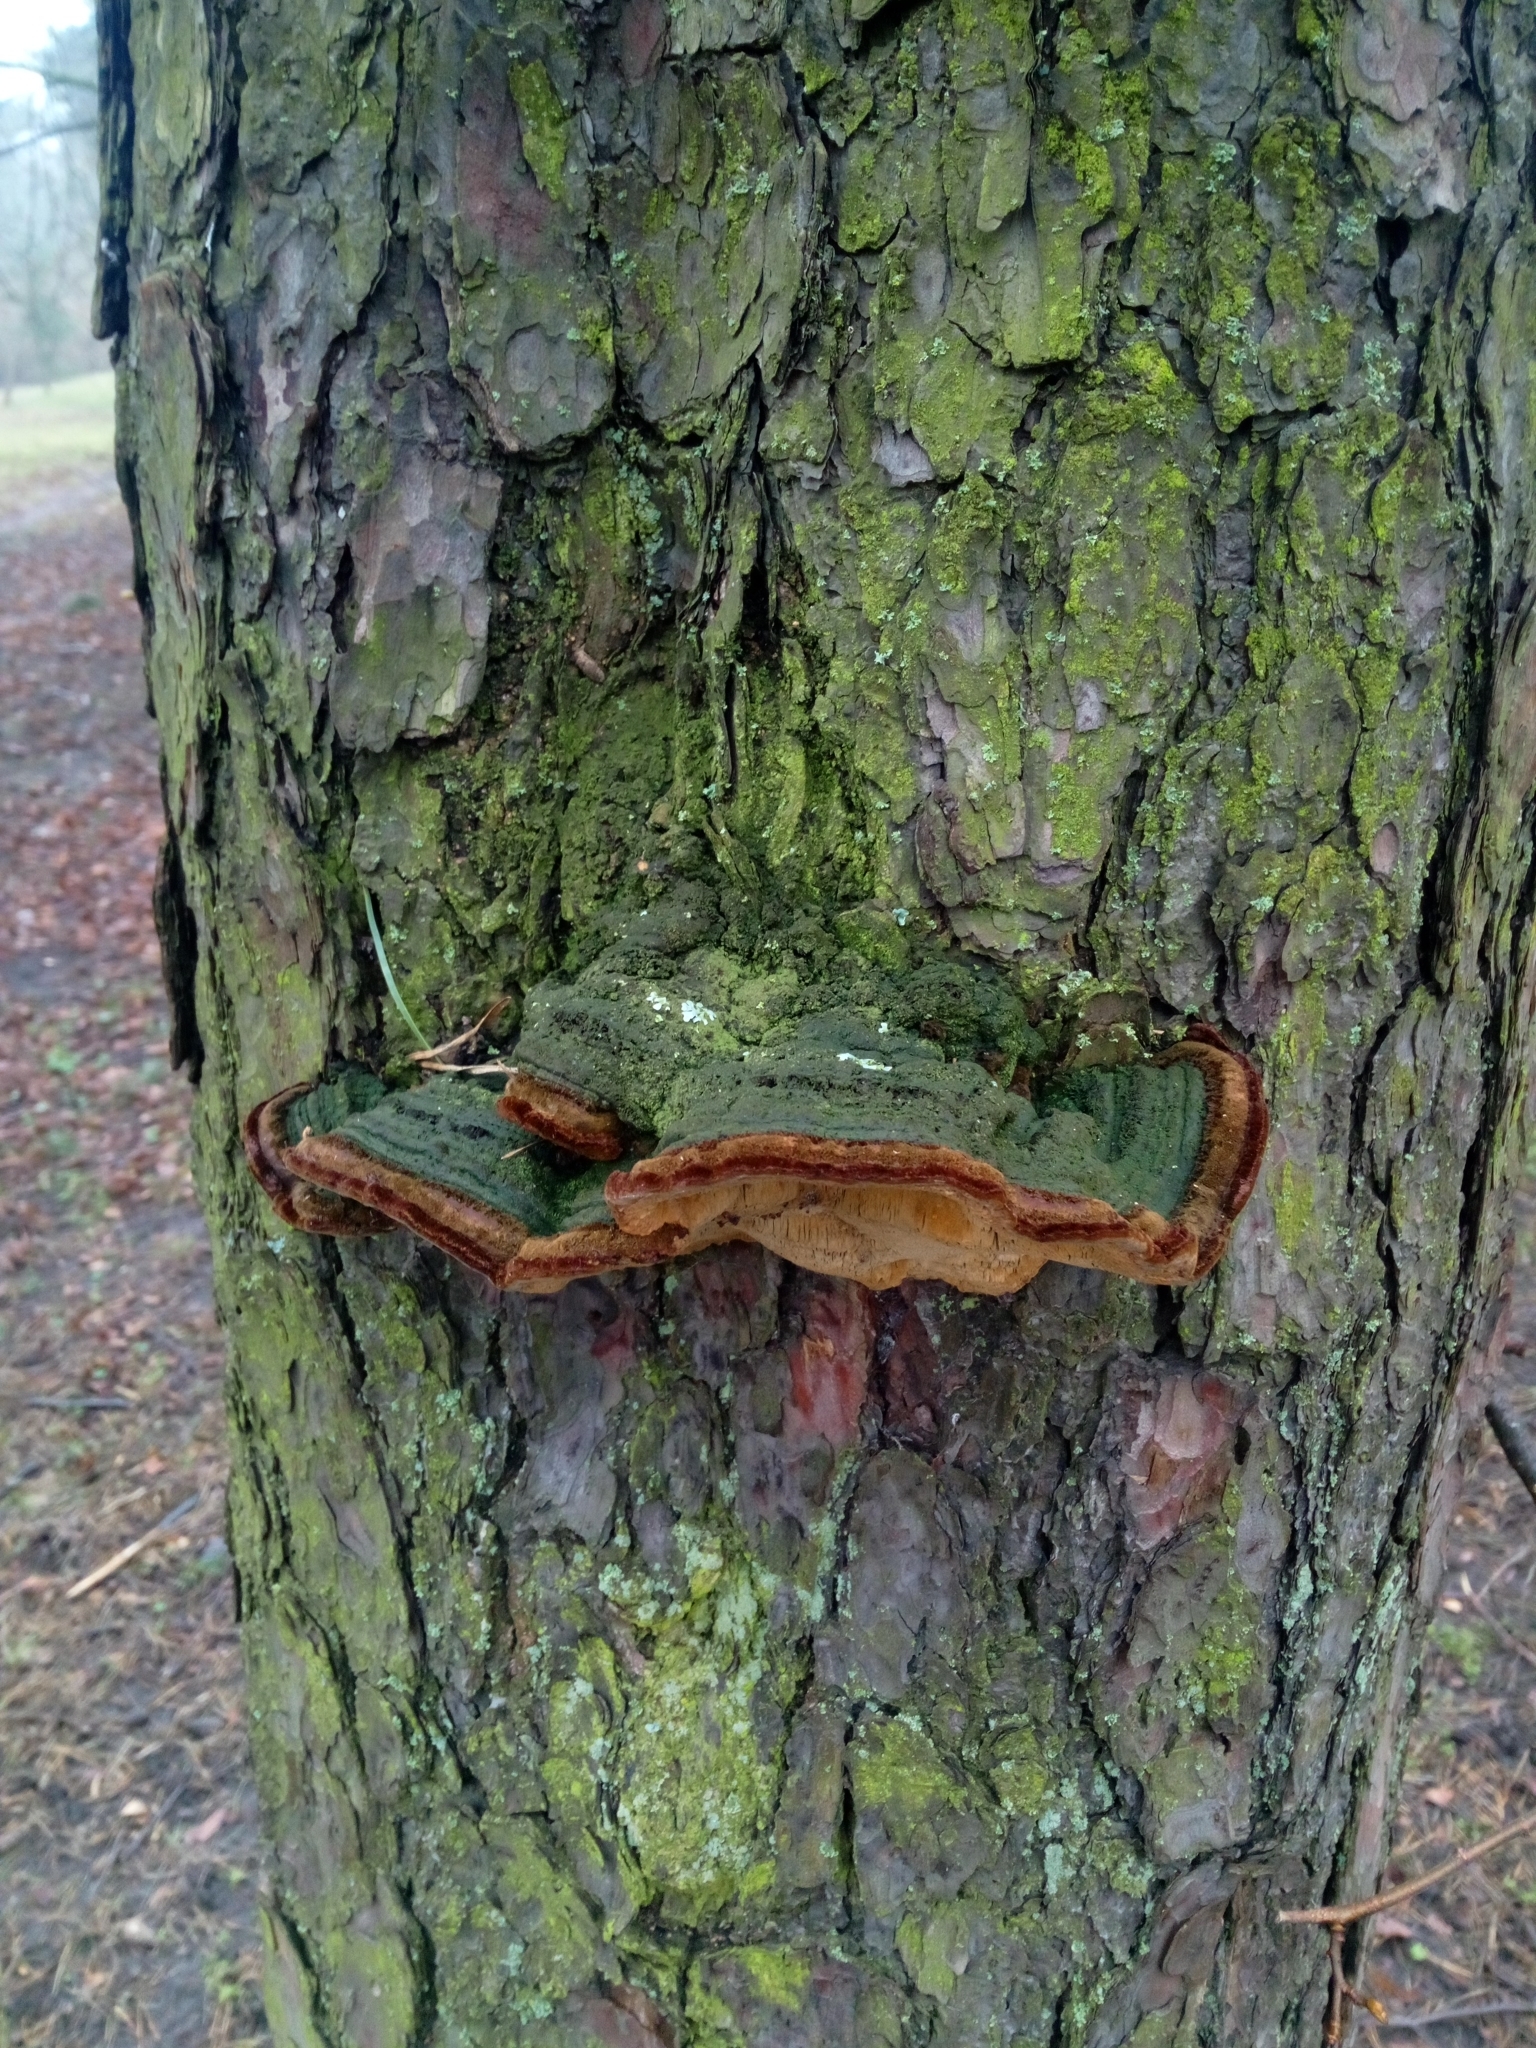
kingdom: Fungi
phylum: Basidiomycota
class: Agaricomycetes
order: Hymenochaetales
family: Hymenochaetaceae
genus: Porodaedalea
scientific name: Porodaedalea pini
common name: Pine bracket
